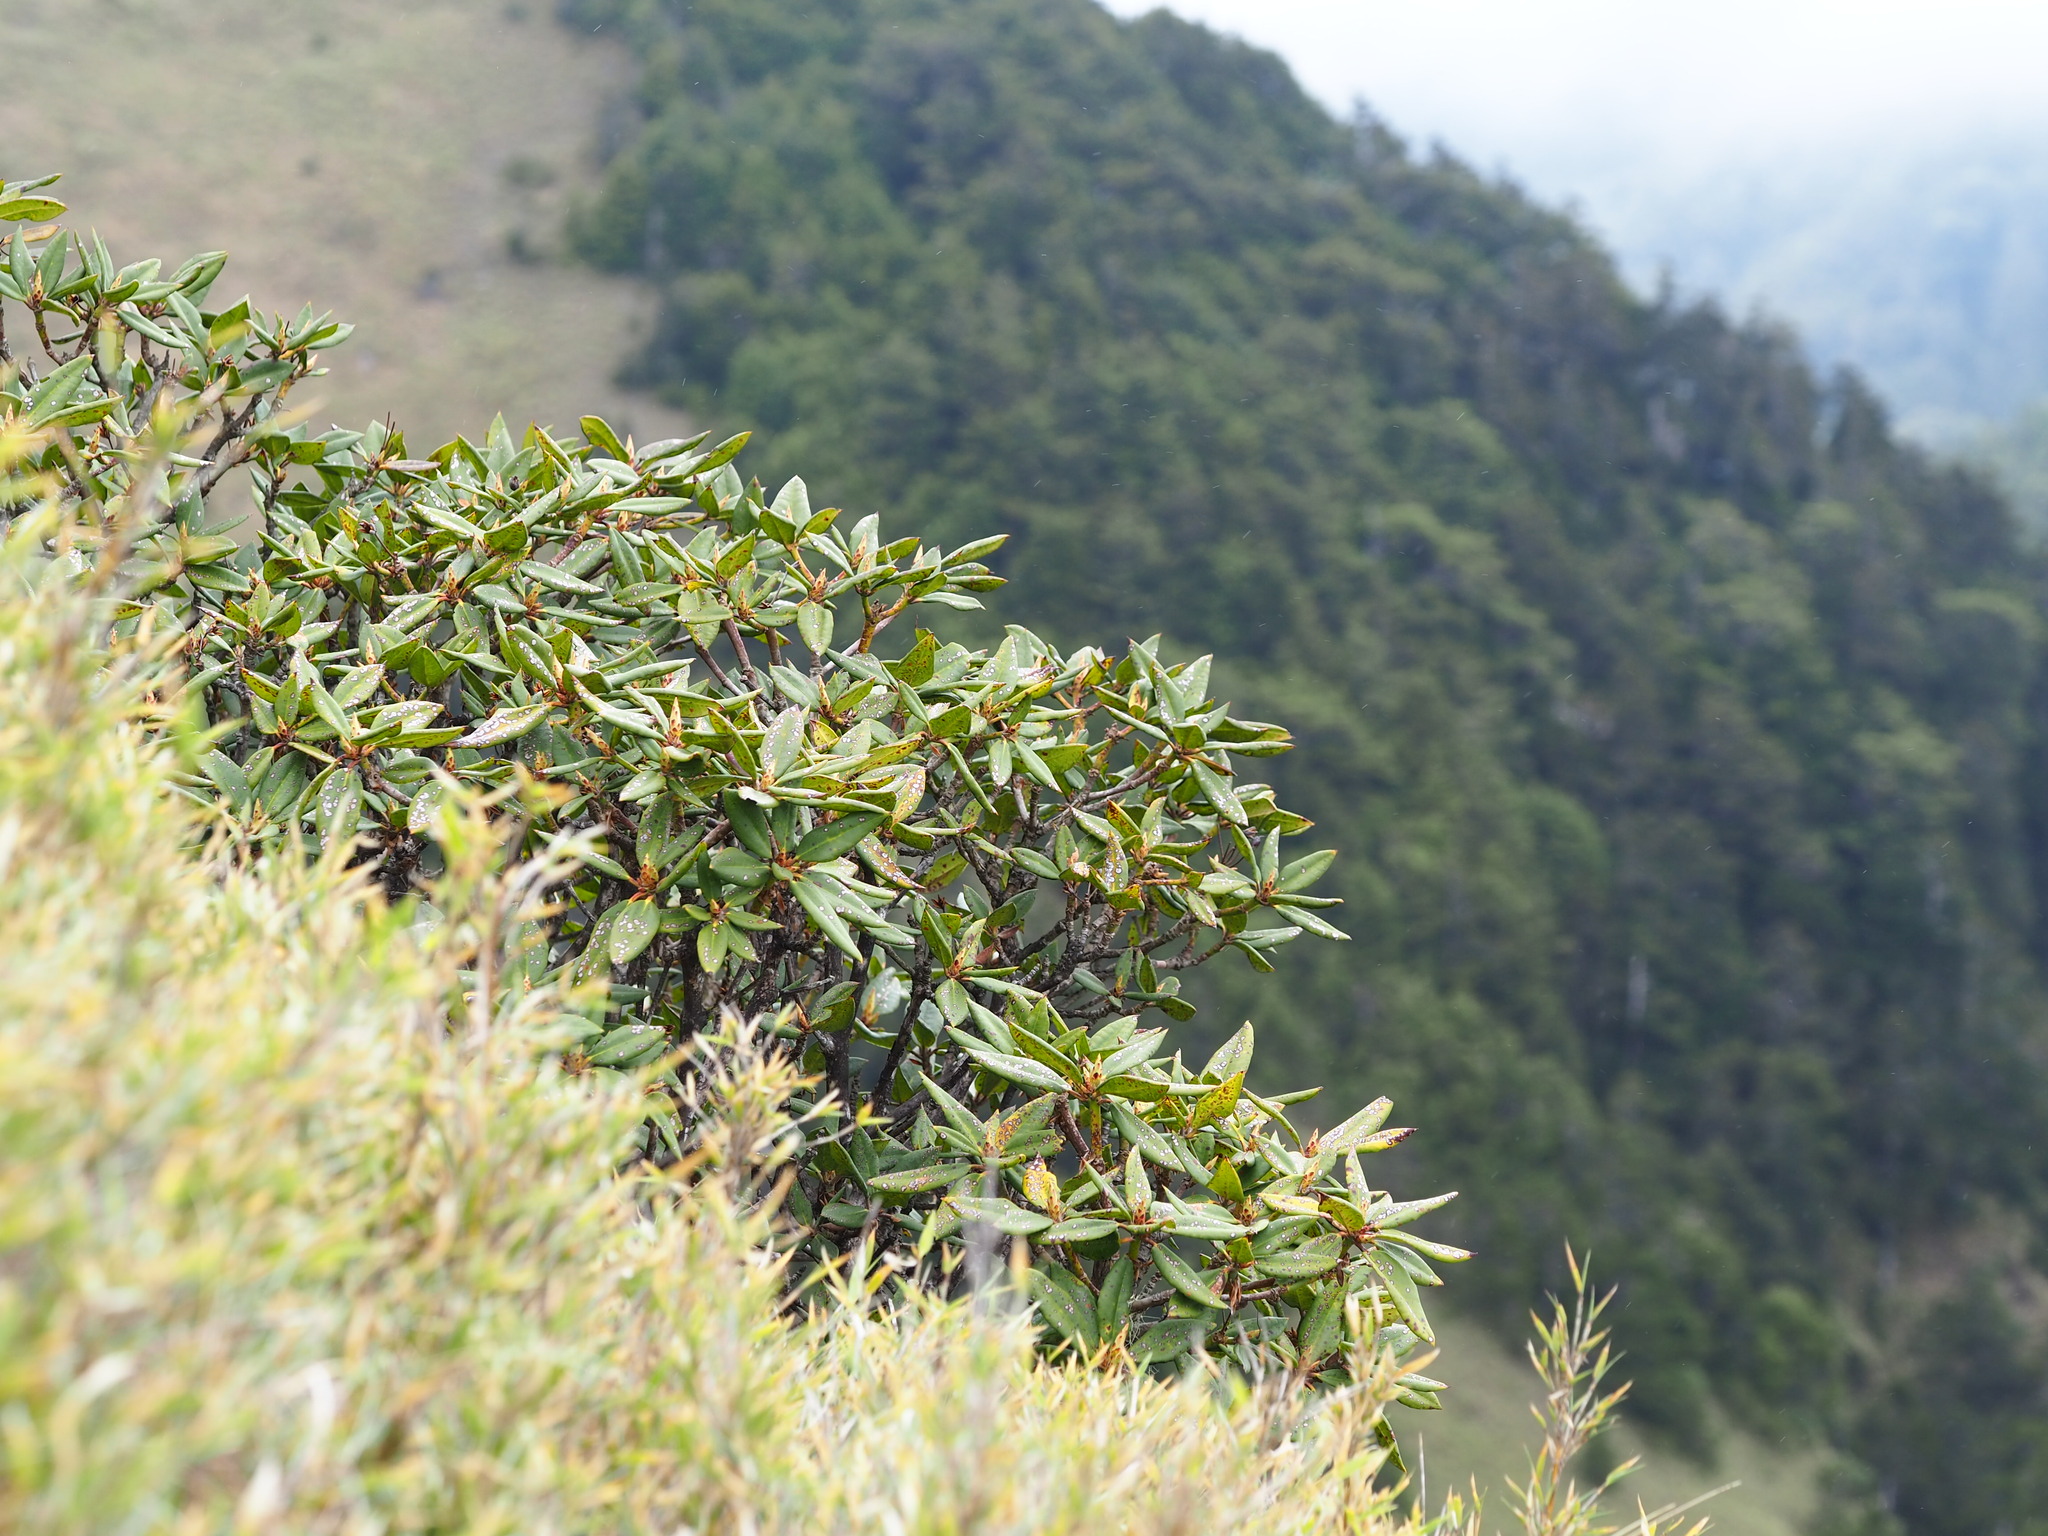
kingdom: Plantae
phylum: Tracheophyta
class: Magnoliopsida
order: Ericales
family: Ericaceae
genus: Rhododendron
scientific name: Rhododendron pseudochrysanthum
